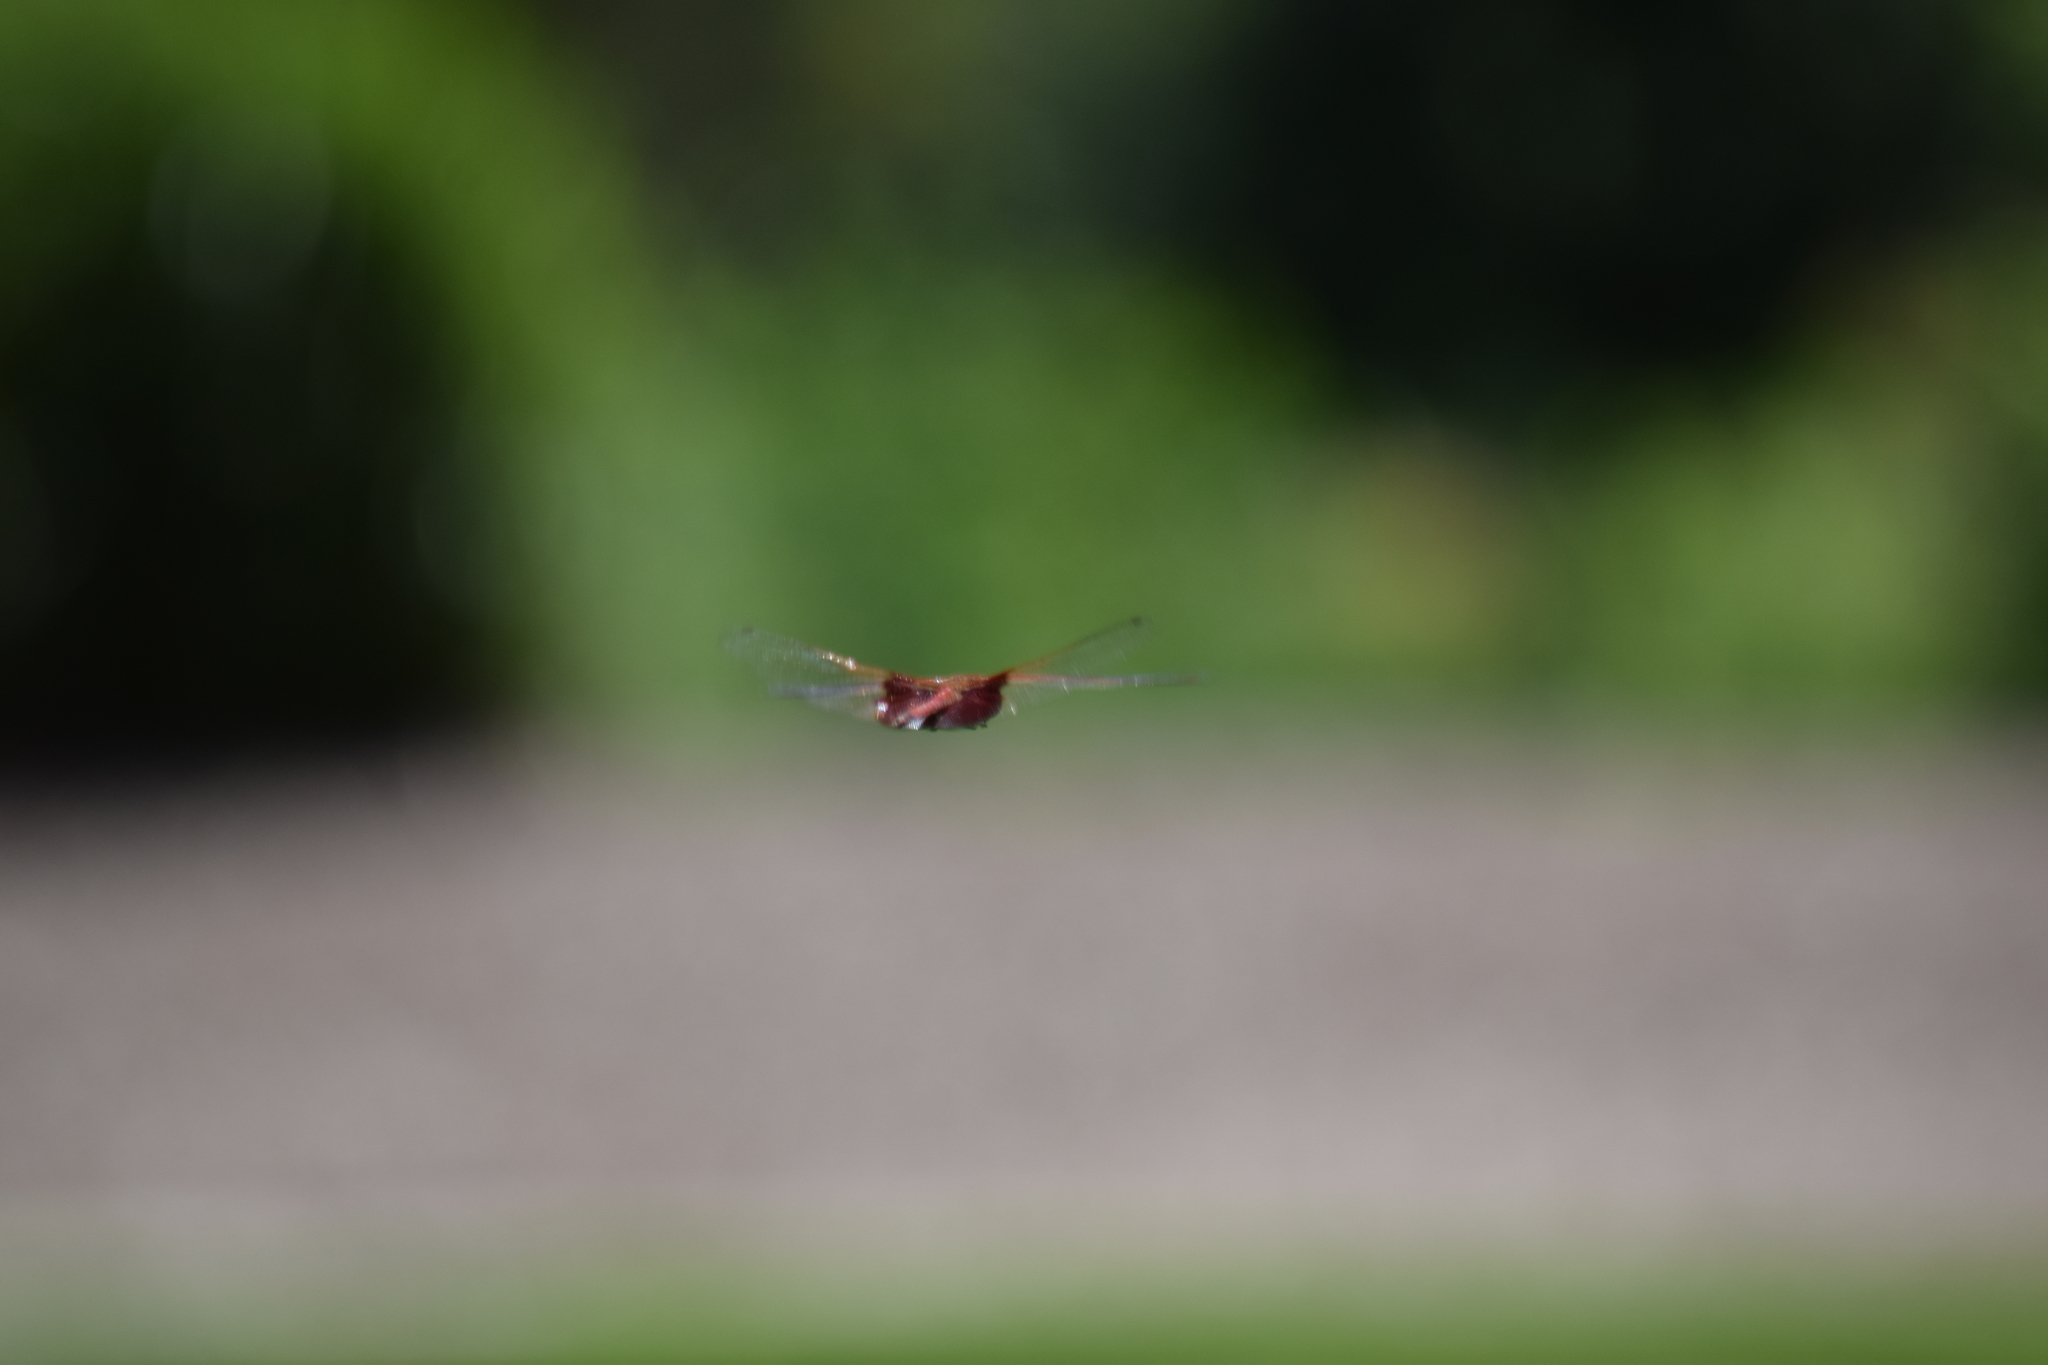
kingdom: Animalia
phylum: Arthropoda
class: Insecta
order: Odonata
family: Libellulidae
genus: Tramea
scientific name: Tramea carolina
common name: Carolina saddlebags
